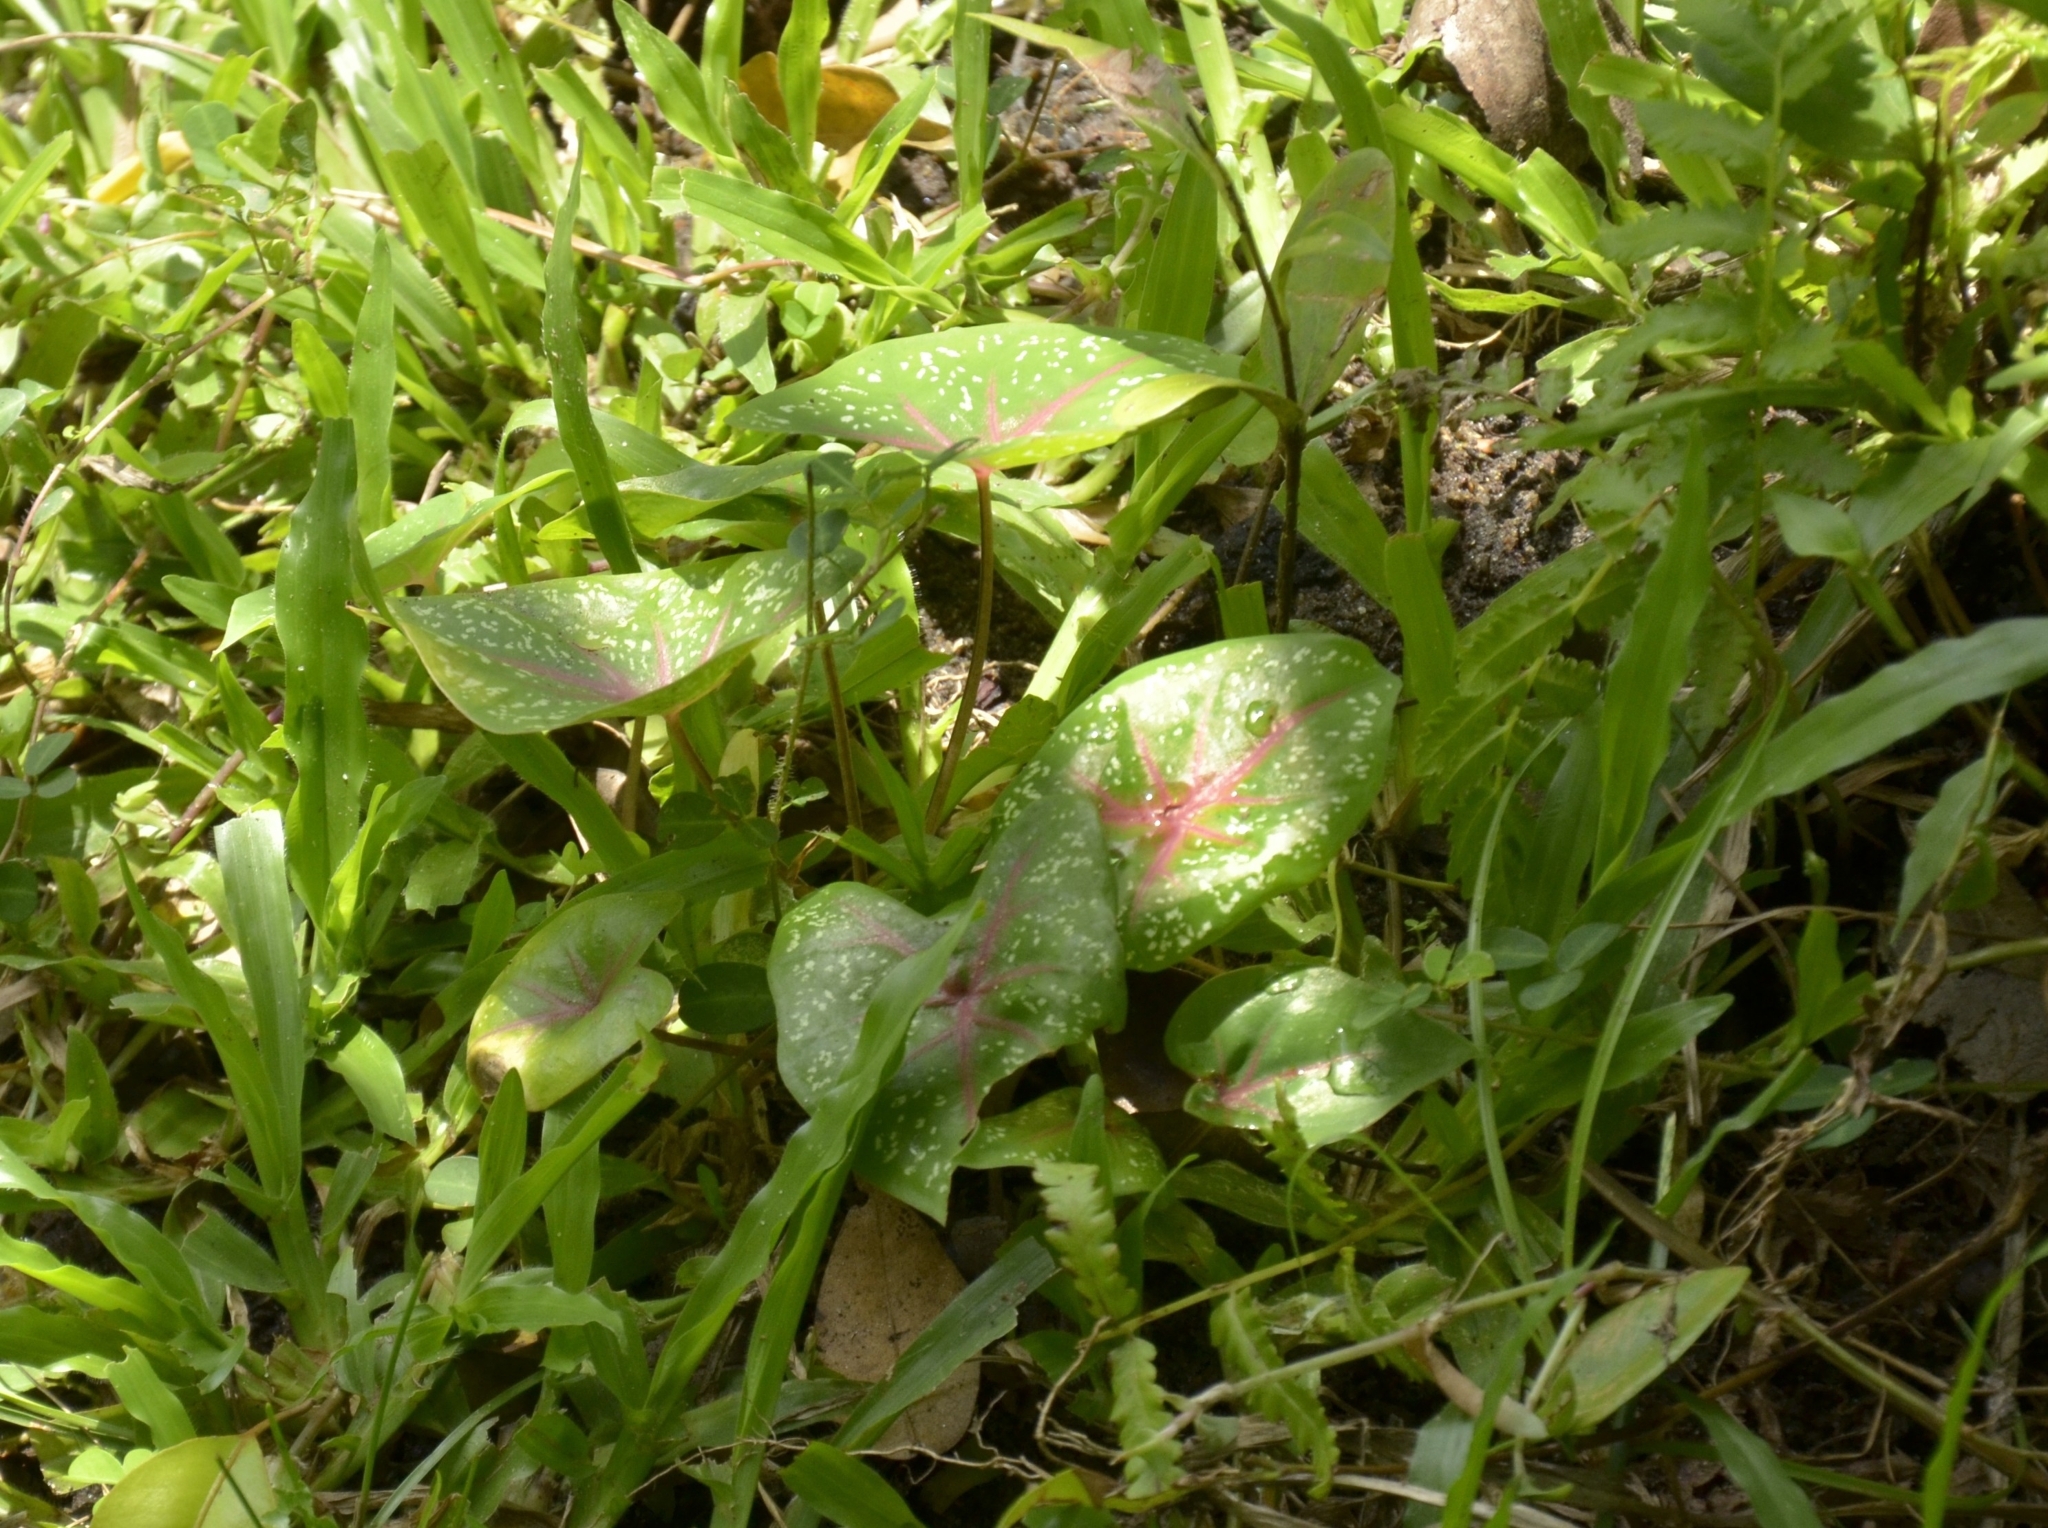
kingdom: Plantae
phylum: Tracheophyta
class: Liliopsida
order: Alismatales
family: Araceae
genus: Caladium
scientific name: Caladium bicolor
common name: Artist's pallet
